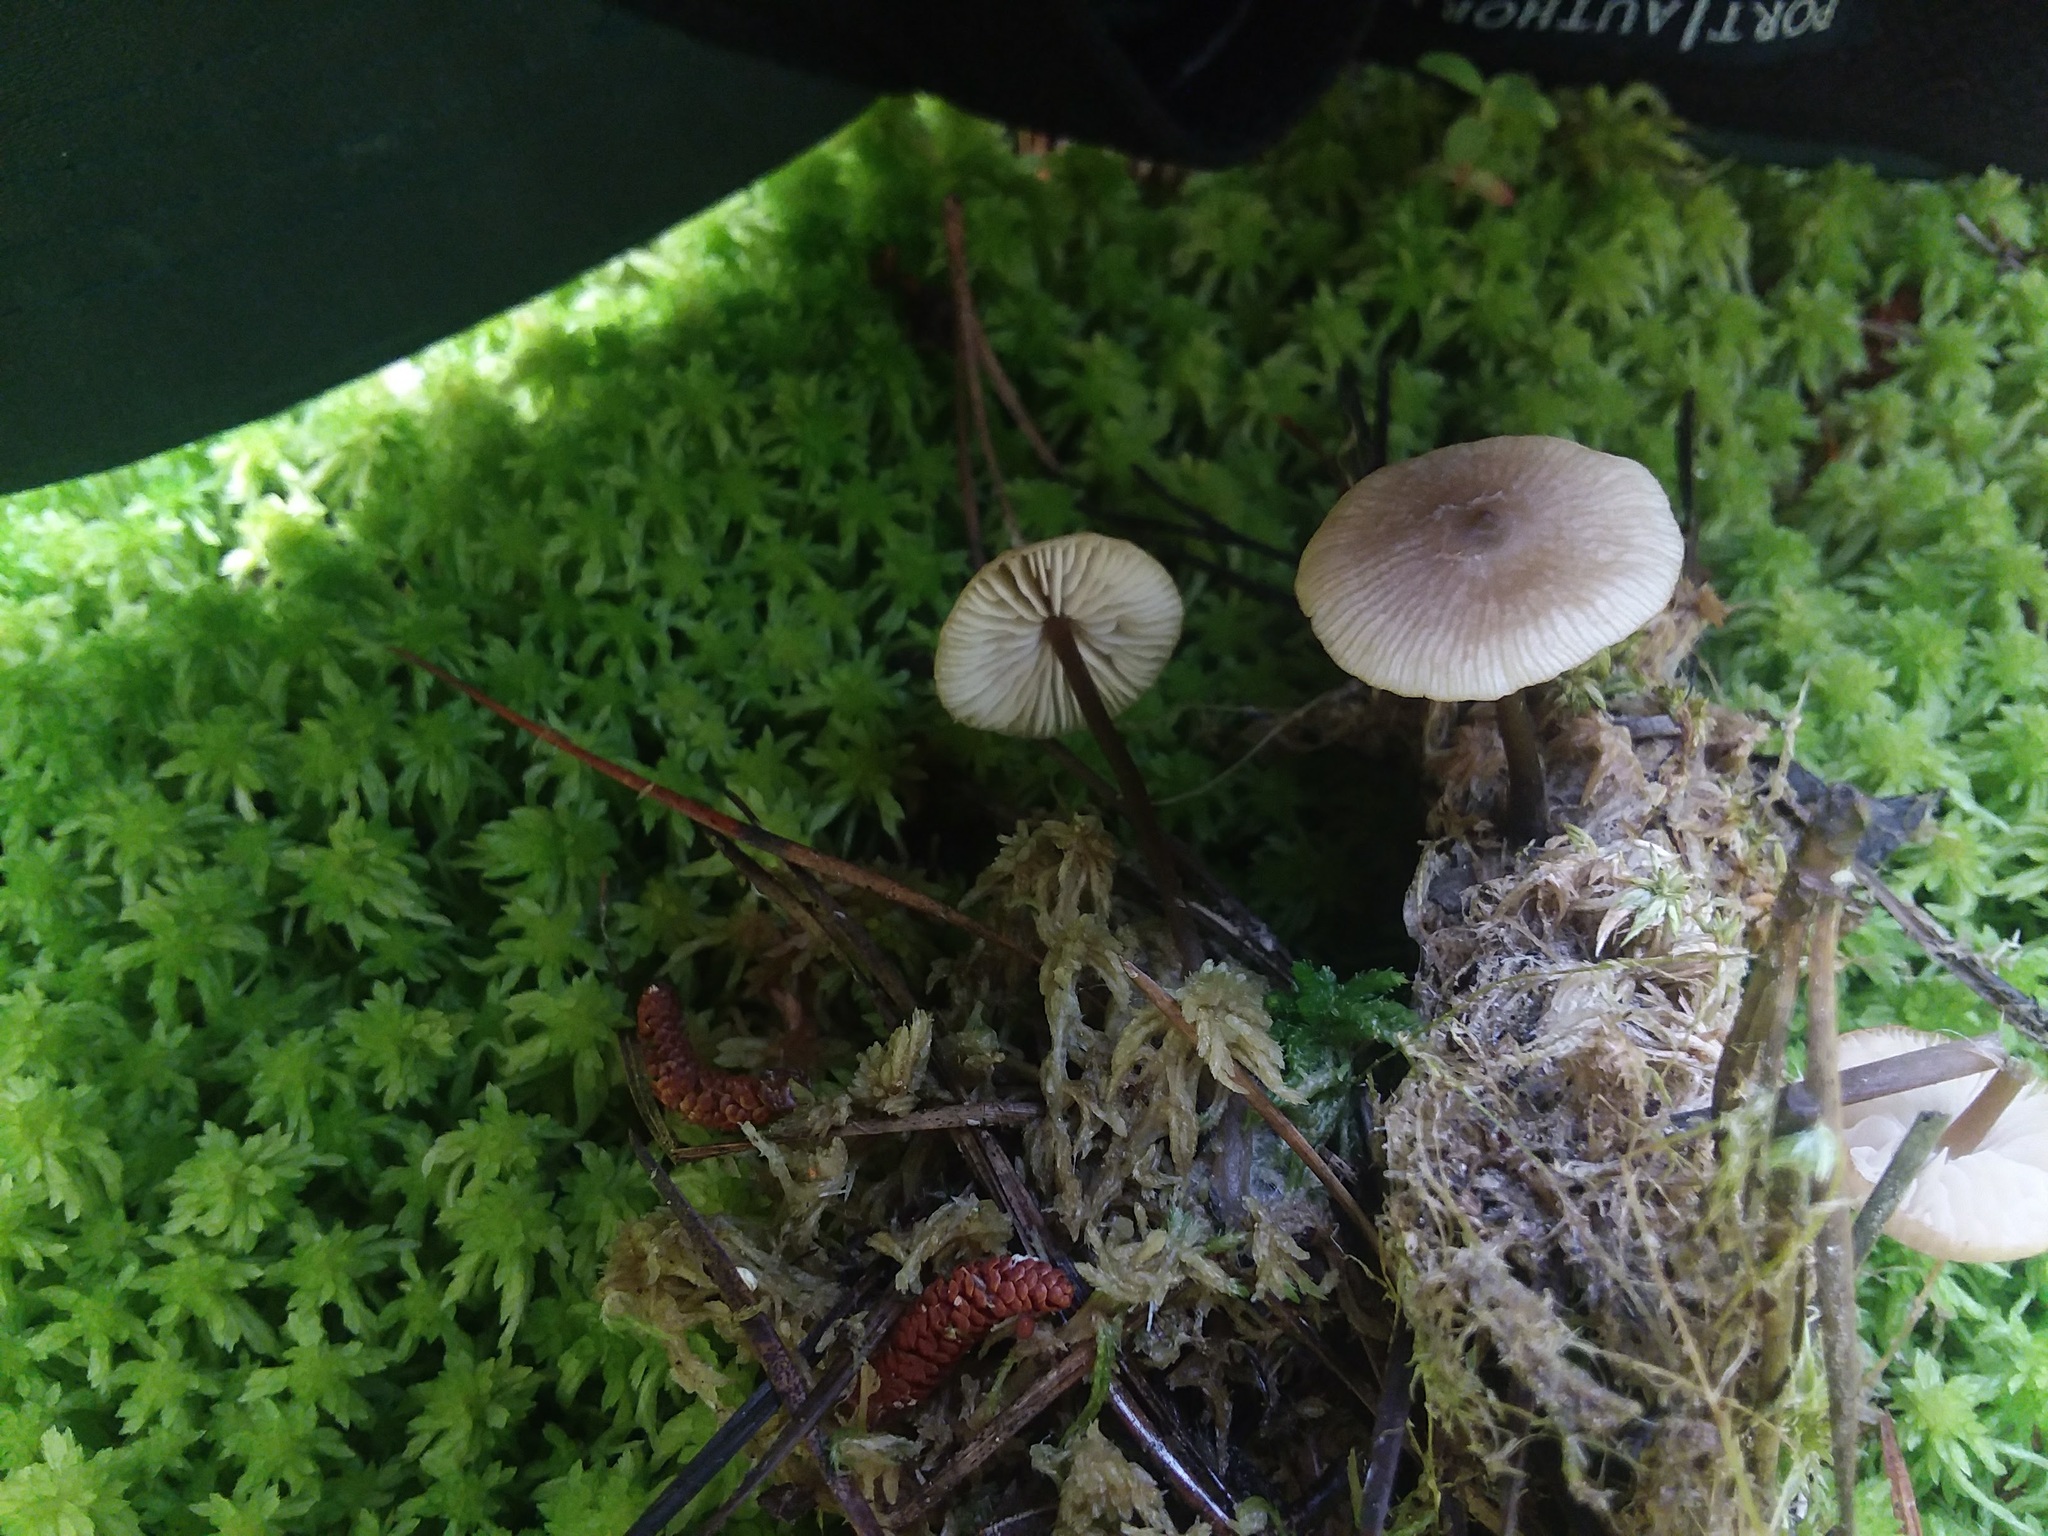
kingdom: Fungi
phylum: Basidiomycota
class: Agaricomycetes
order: Agaricales
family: Lyophyllaceae
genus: Sphagnurus
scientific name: Sphagnurus paluster
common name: Sphagnum greyling
